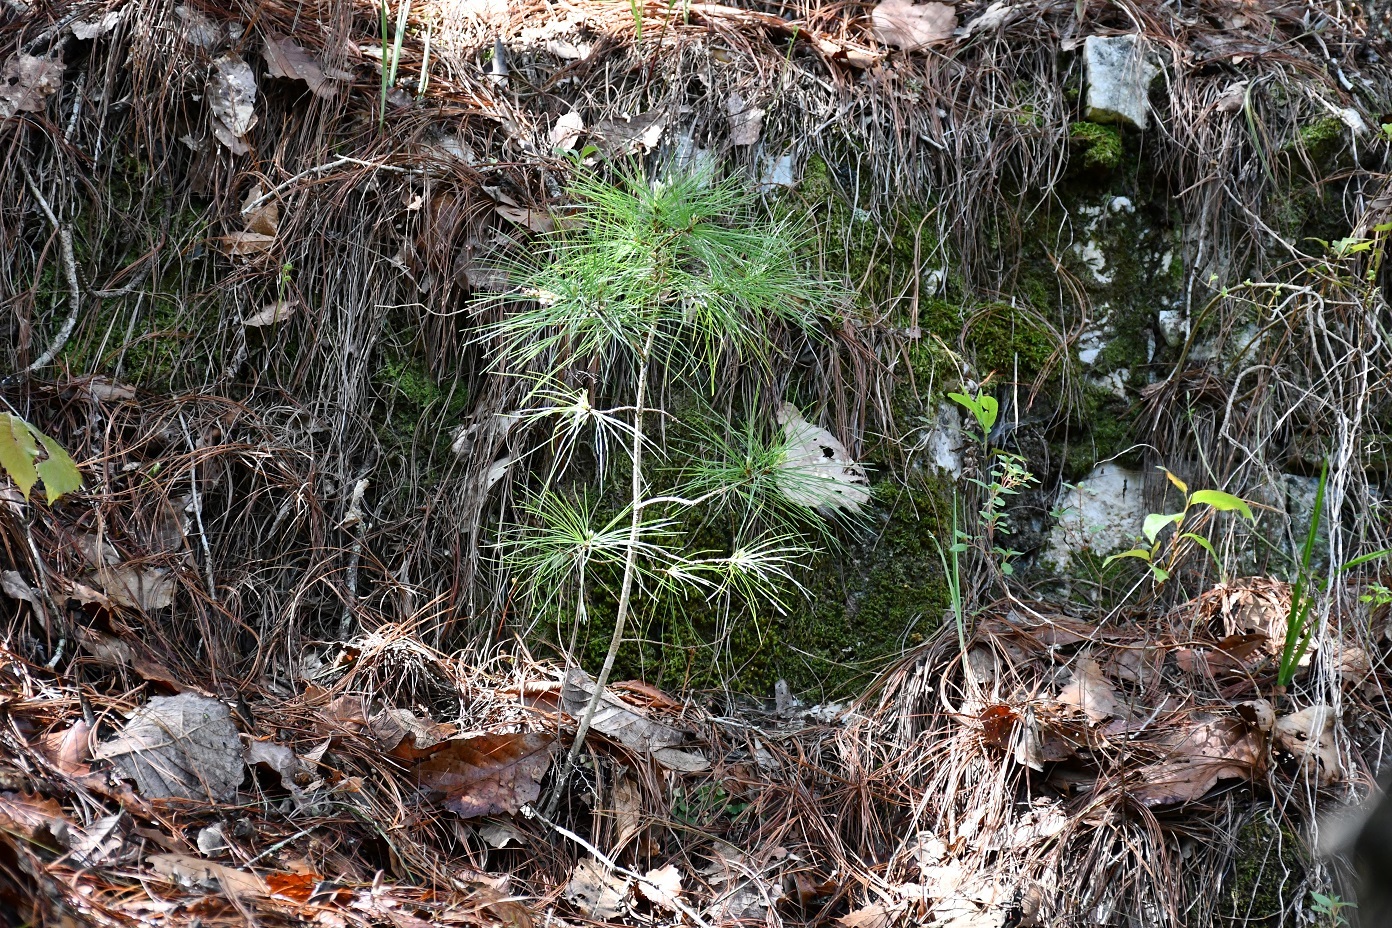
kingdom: Plantae
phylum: Tracheophyta
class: Pinopsida
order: Pinales
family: Pinaceae
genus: Pinus
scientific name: Pinus ayacahuite
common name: Mexican white pine
